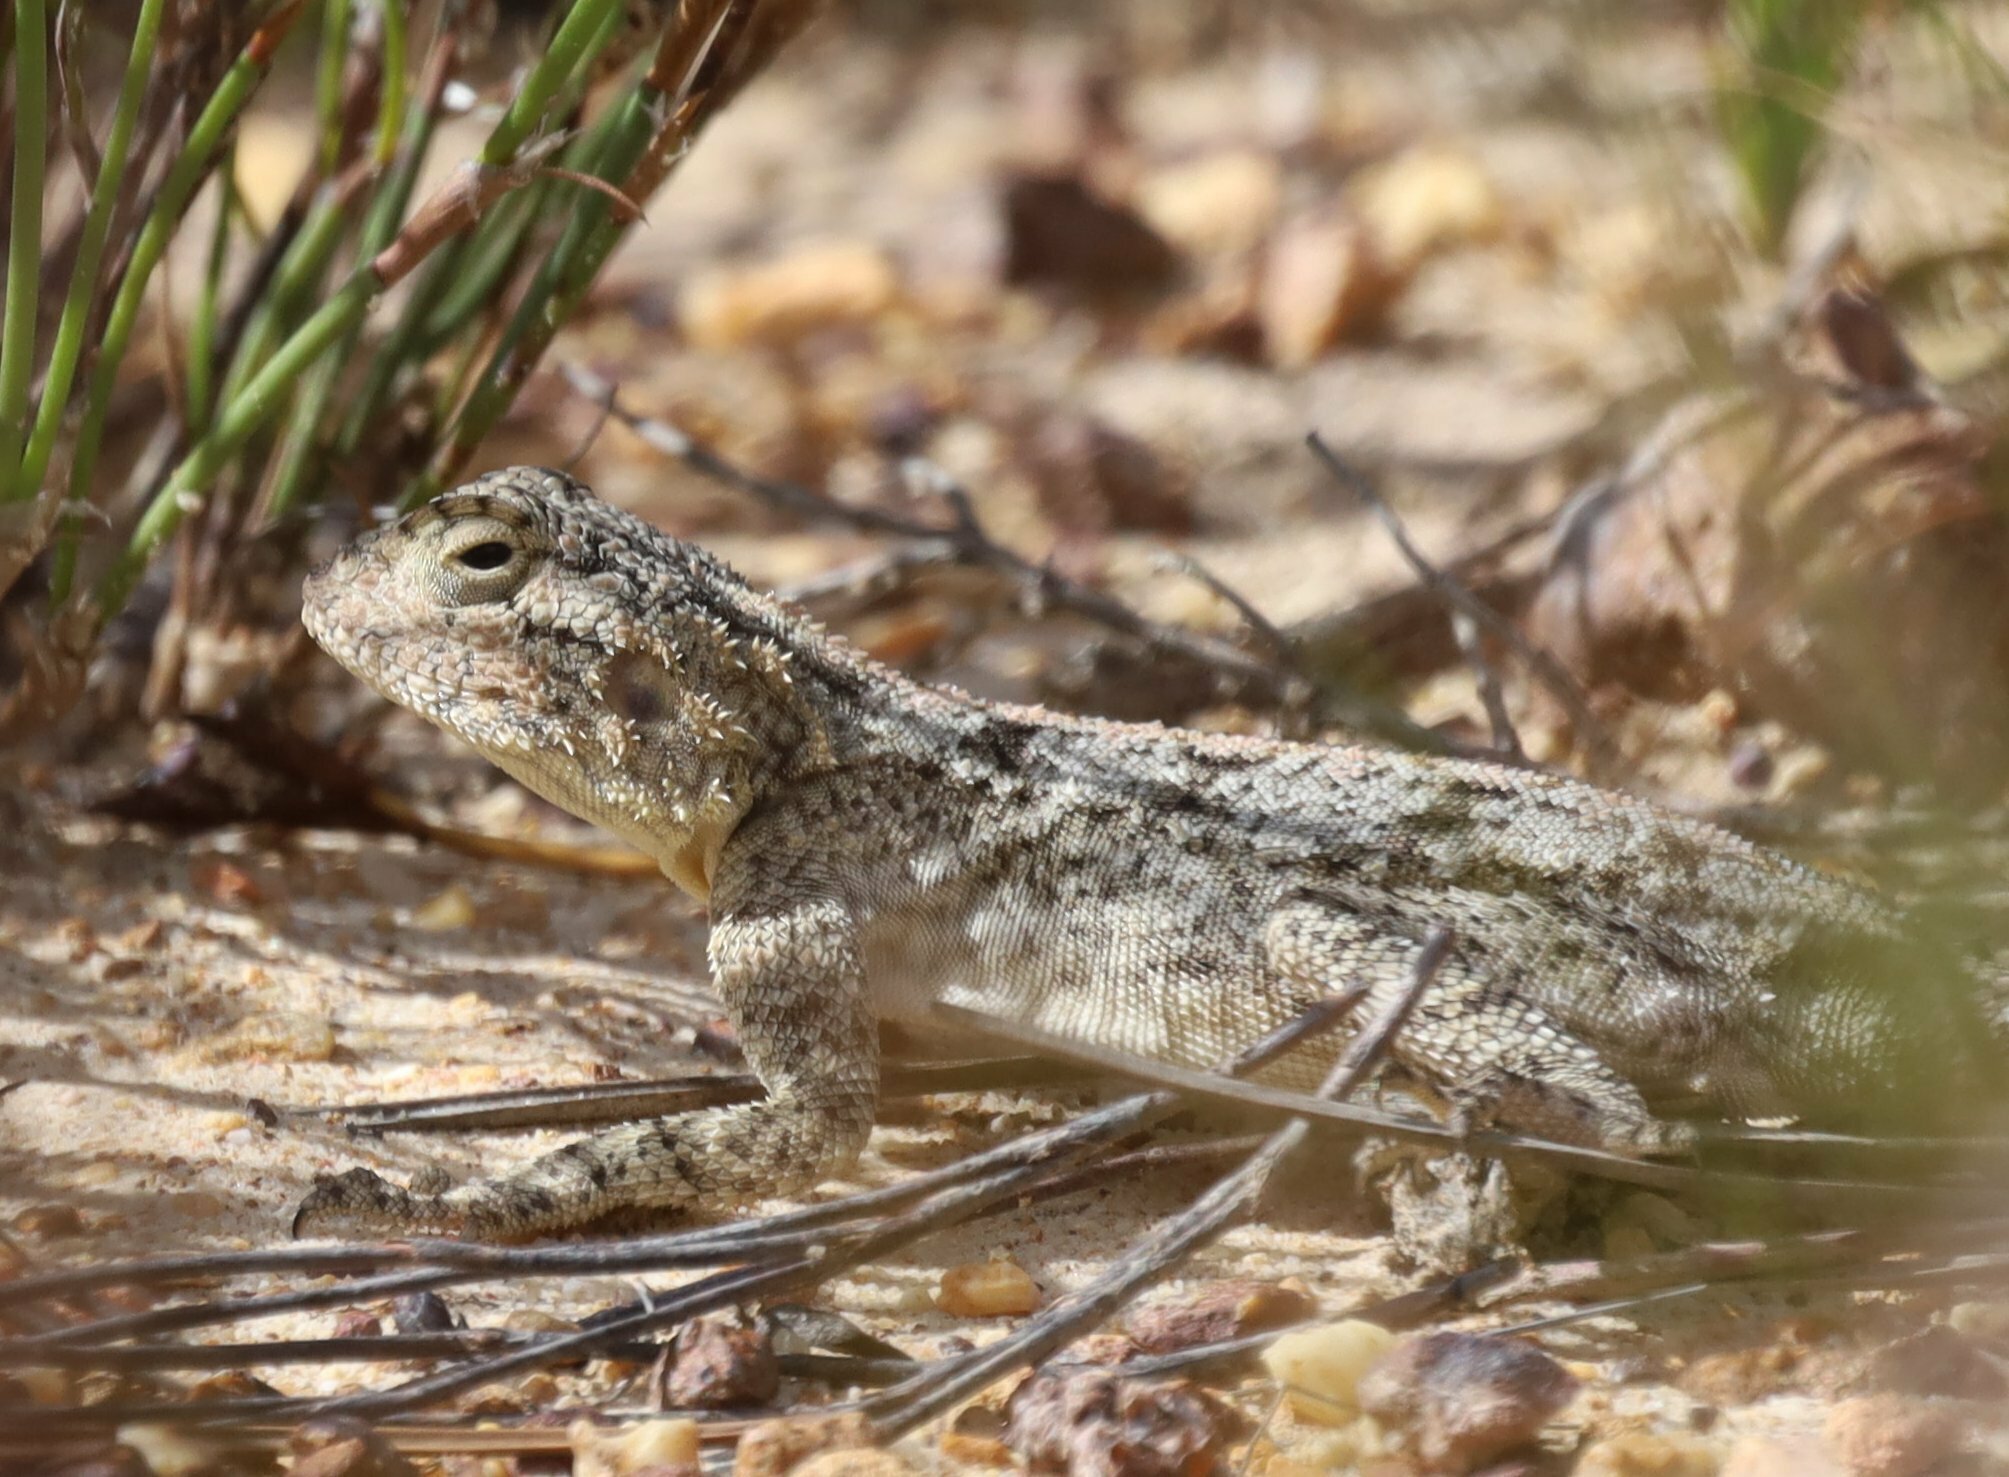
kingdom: Animalia
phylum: Chordata
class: Squamata
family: Agamidae
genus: Agama
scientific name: Agama atra
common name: Southern african rock agama
